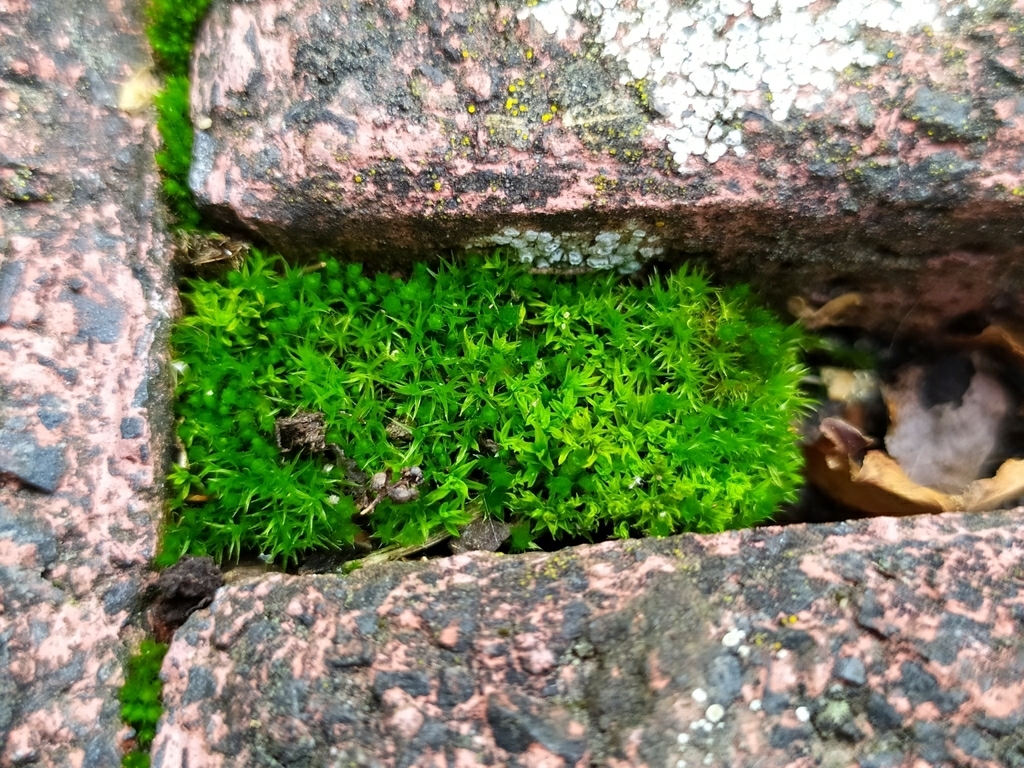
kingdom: Plantae
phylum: Bryophyta
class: Bryopsida
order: Pottiales
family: Pottiaceae
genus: Barbula
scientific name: Barbula unguiculata
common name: Prickly beard moss
